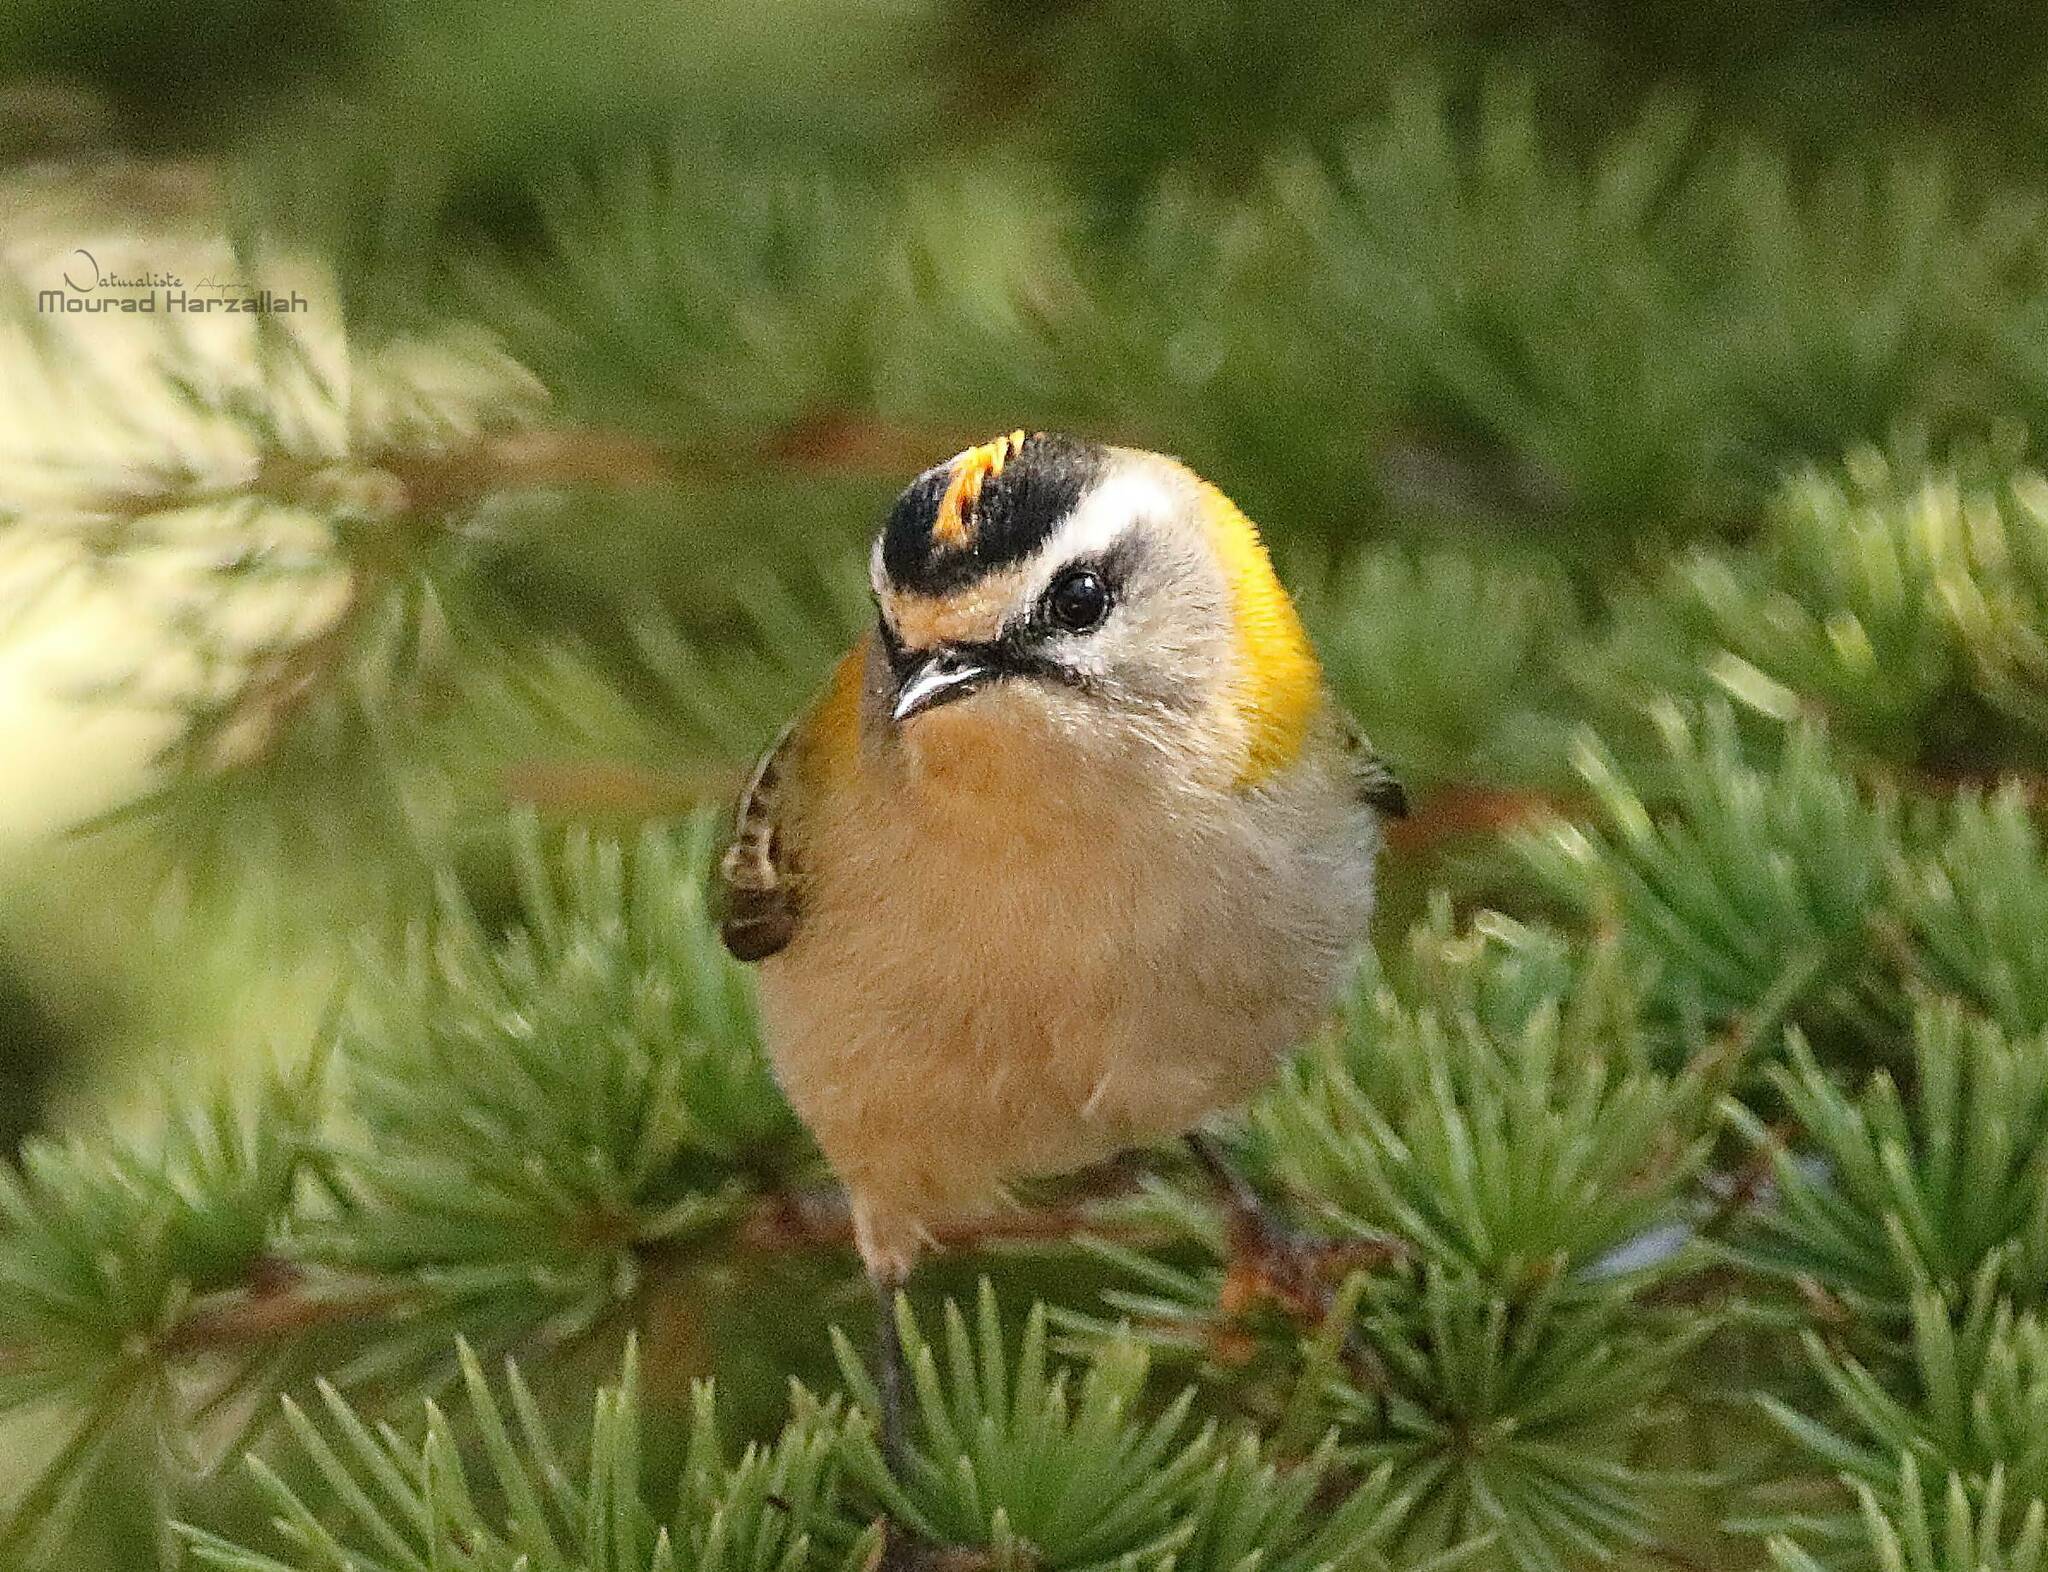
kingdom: Animalia
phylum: Chordata
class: Aves
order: Passeriformes
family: Regulidae
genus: Regulus
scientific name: Regulus ignicapilla
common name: Firecrest
